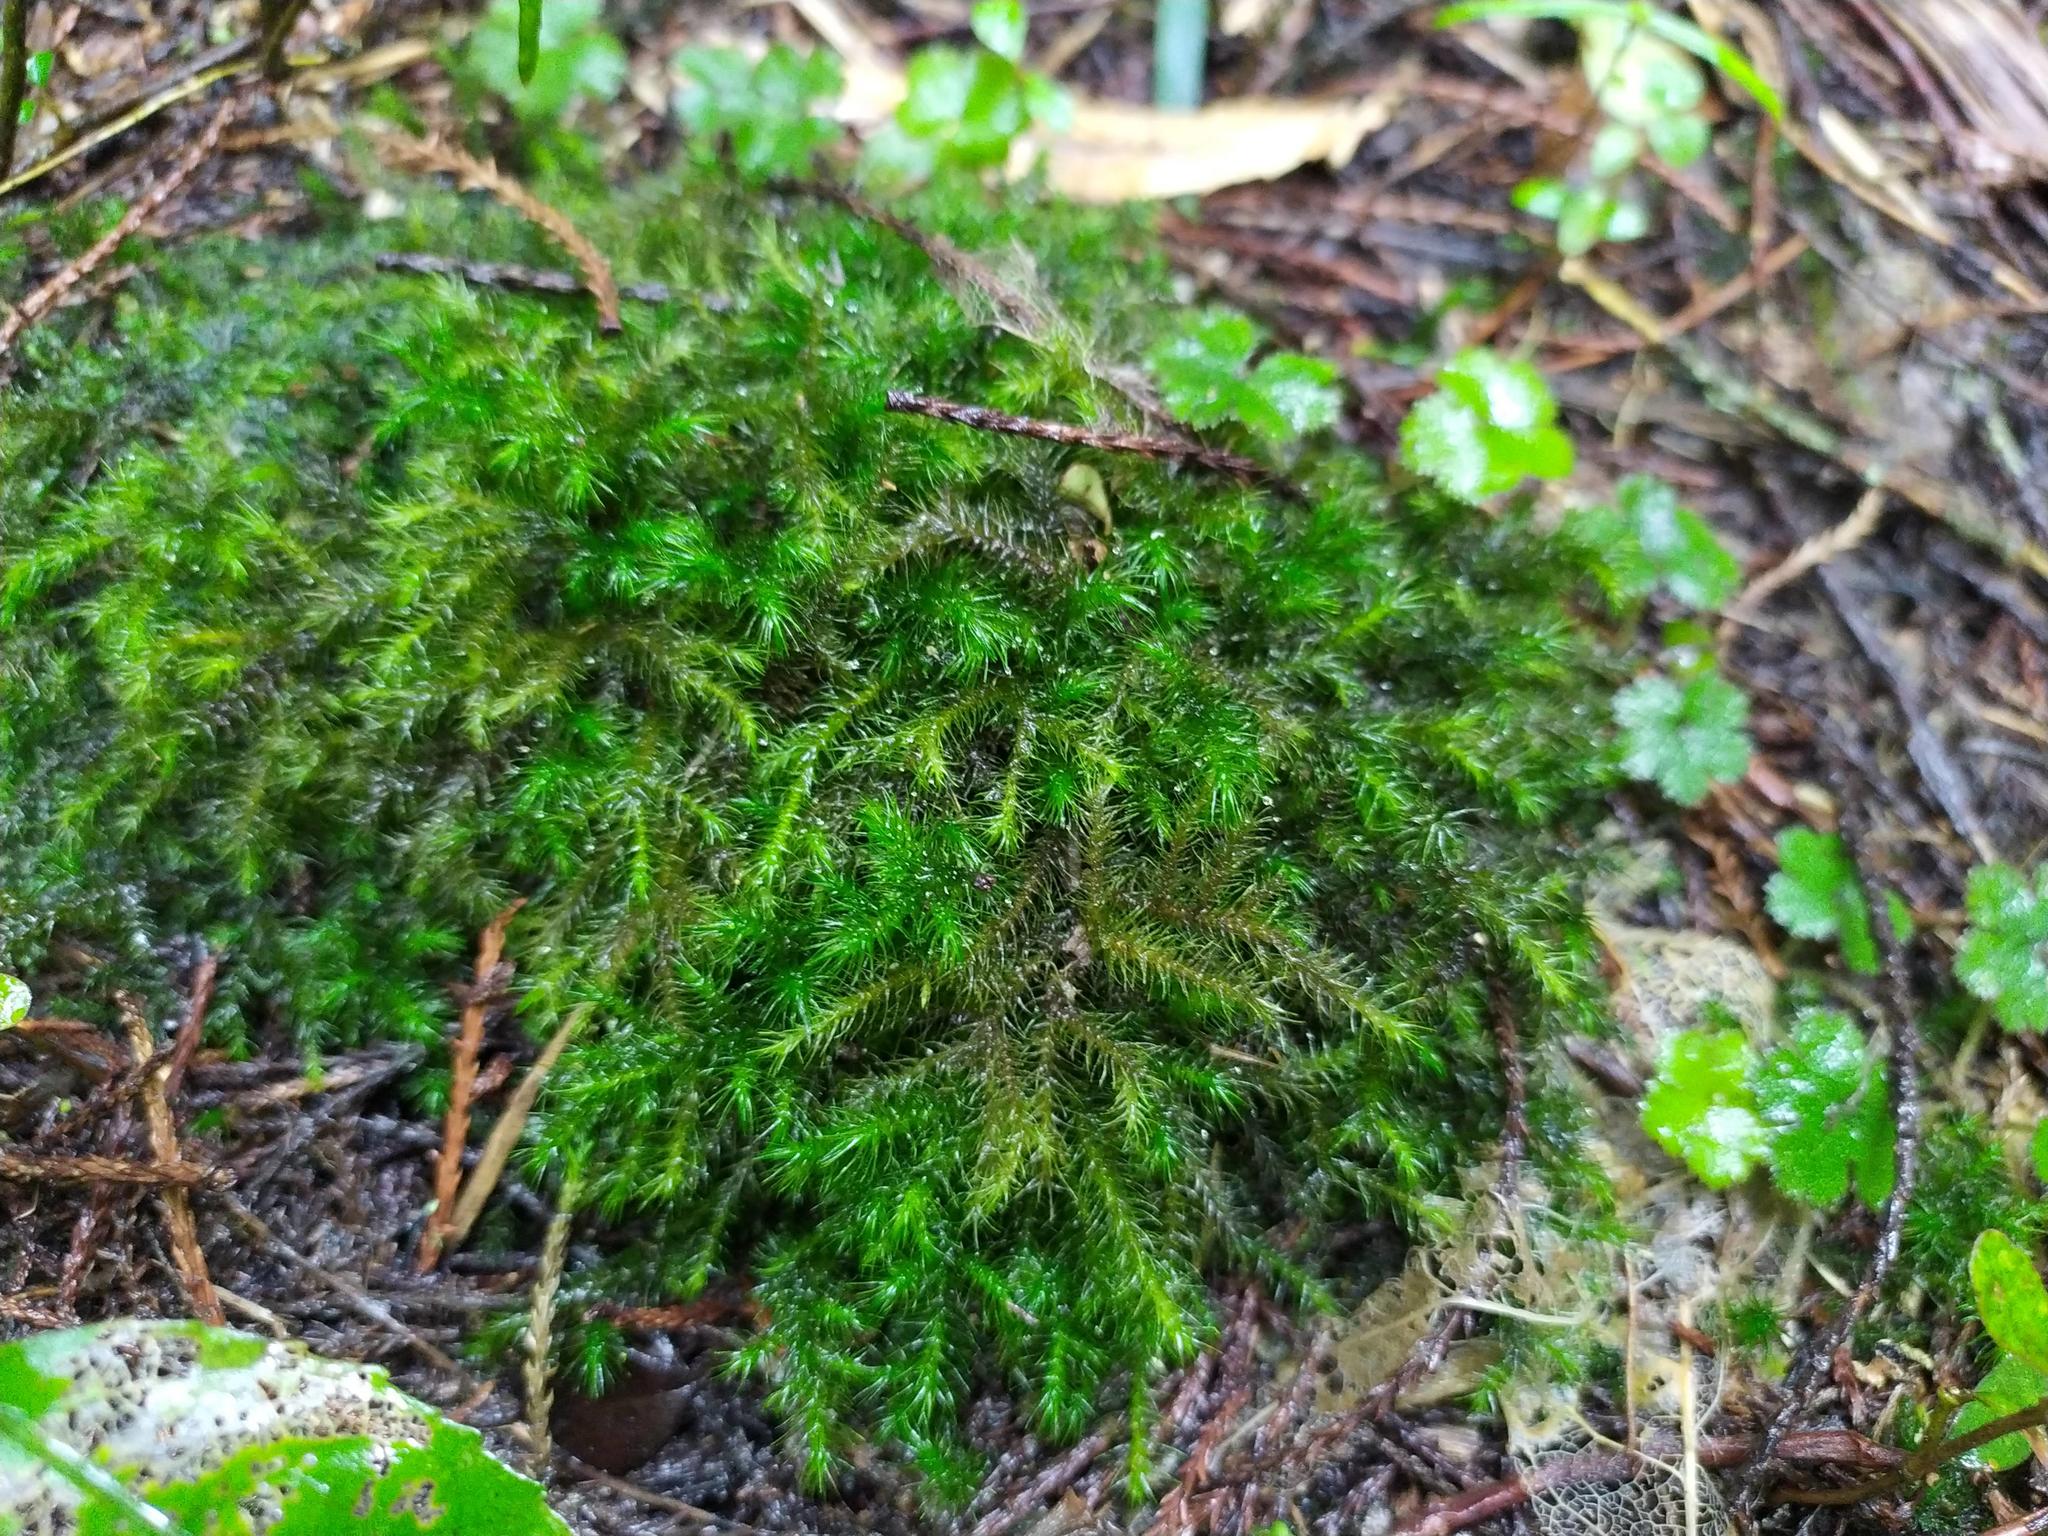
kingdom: Plantae
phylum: Bryophyta
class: Bryopsida
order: Hypnales
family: Neckeraceae
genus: Echinodiopsis
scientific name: Echinodiopsis hispida
